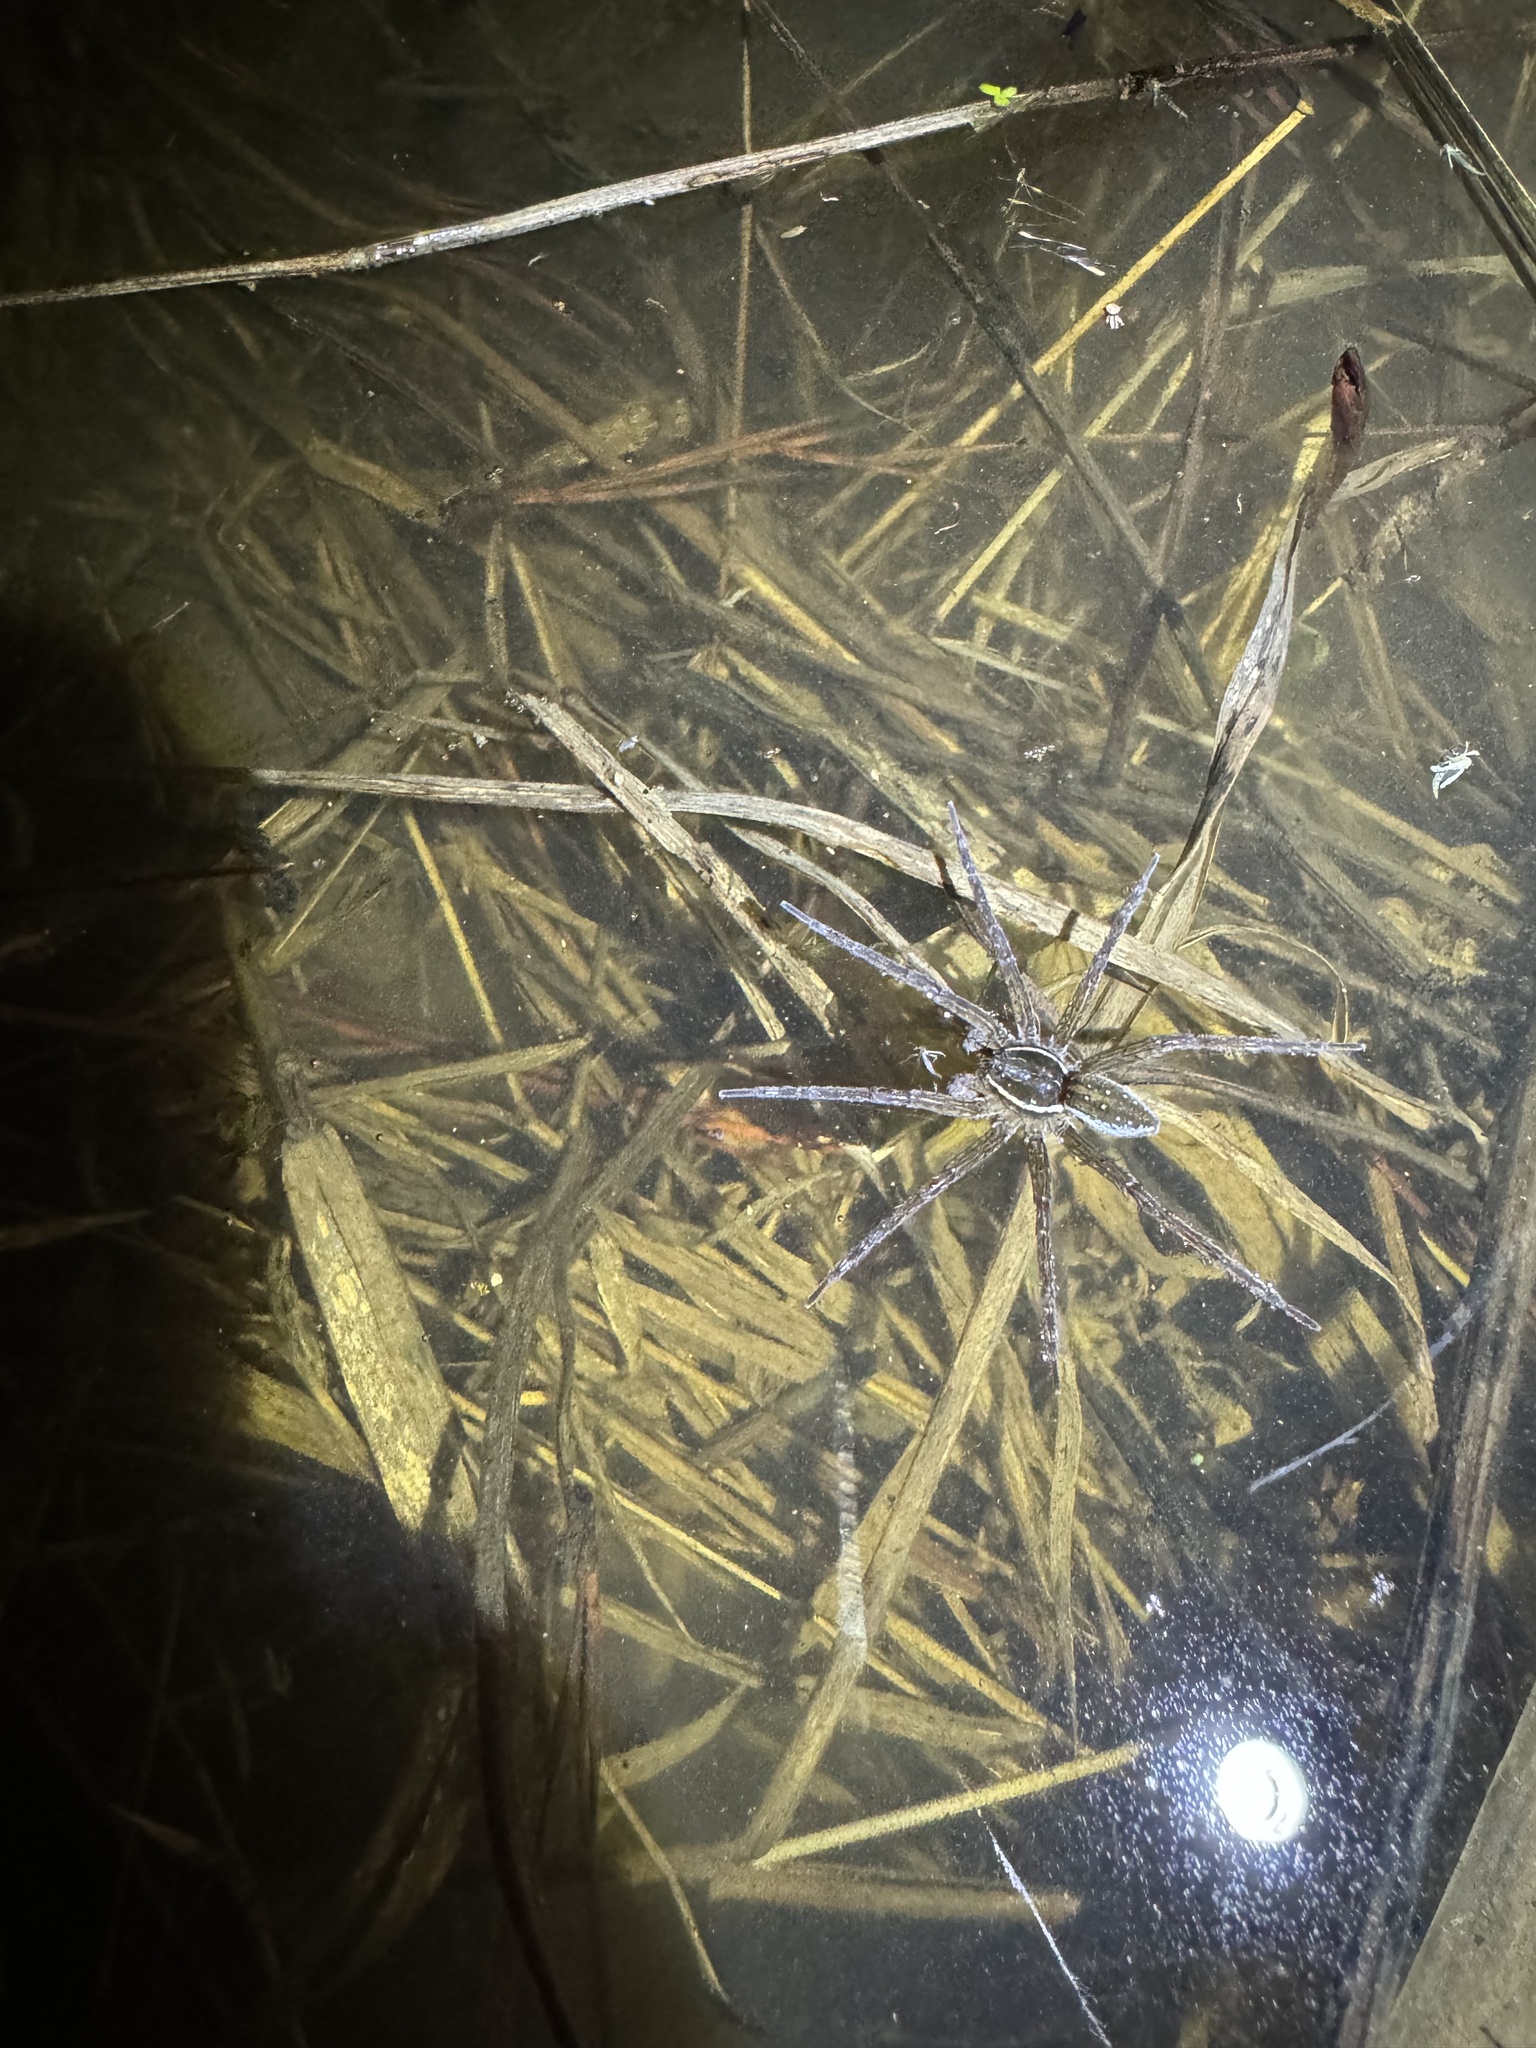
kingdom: Animalia
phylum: Arthropoda
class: Arachnida
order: Araneae
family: Pisauridae
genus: Dolomedes
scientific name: Dolomedes triton
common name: Six-spotted fishing spider
